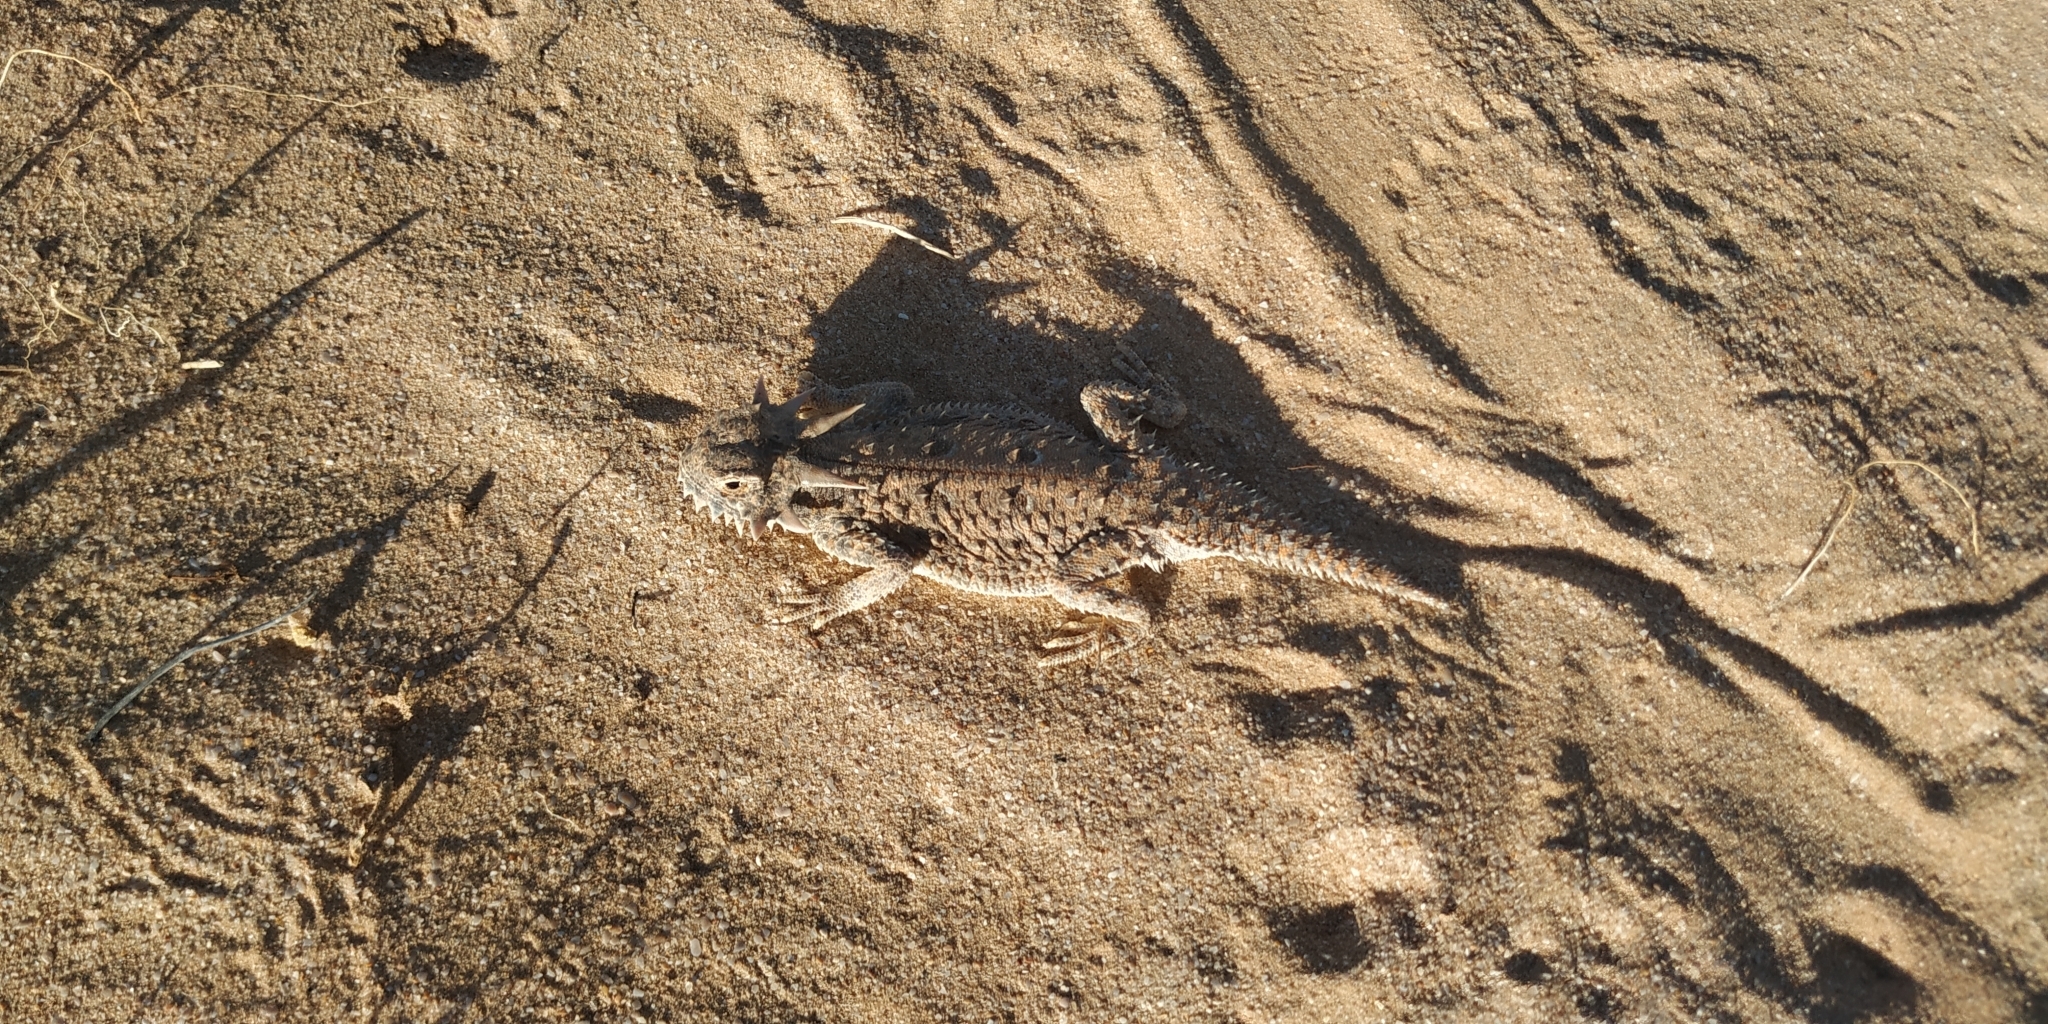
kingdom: Animalia
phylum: Chordata
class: Squamata
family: Phrynosomatidae
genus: Phrynosoma
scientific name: Phrynosoma mcallii
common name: Flat-tailed horned lizard
